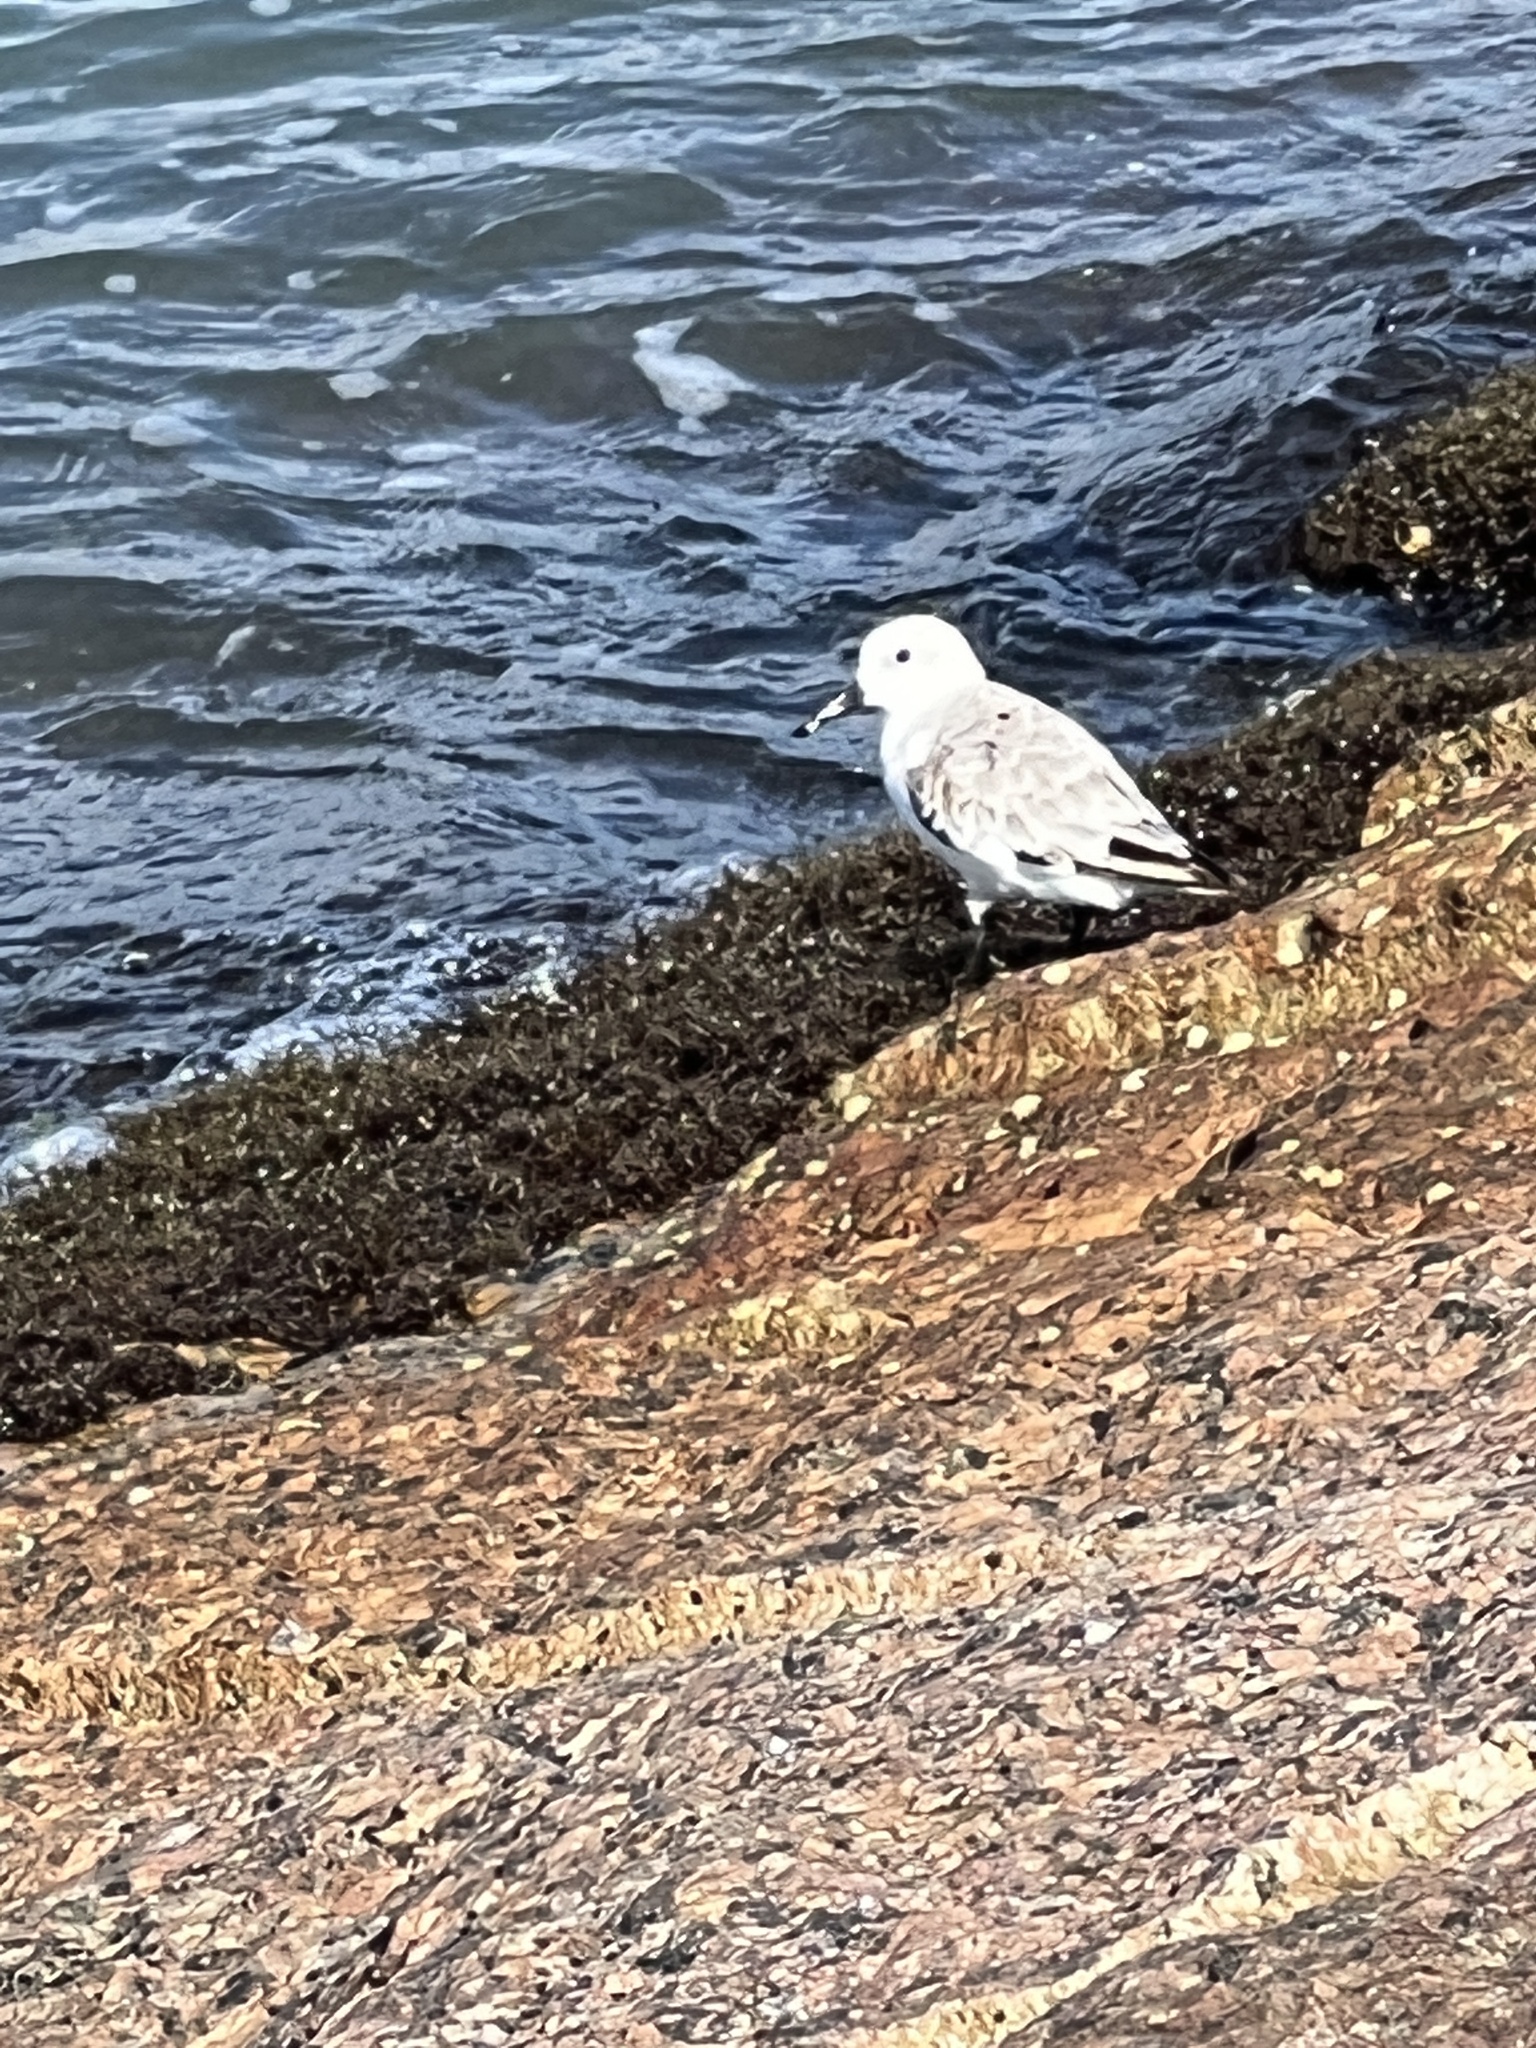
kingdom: Animalia
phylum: Chordata
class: Aves
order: Charadriiformes
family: Scolopacidae
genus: Calidris
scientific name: Calidris alba
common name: Sanderling
